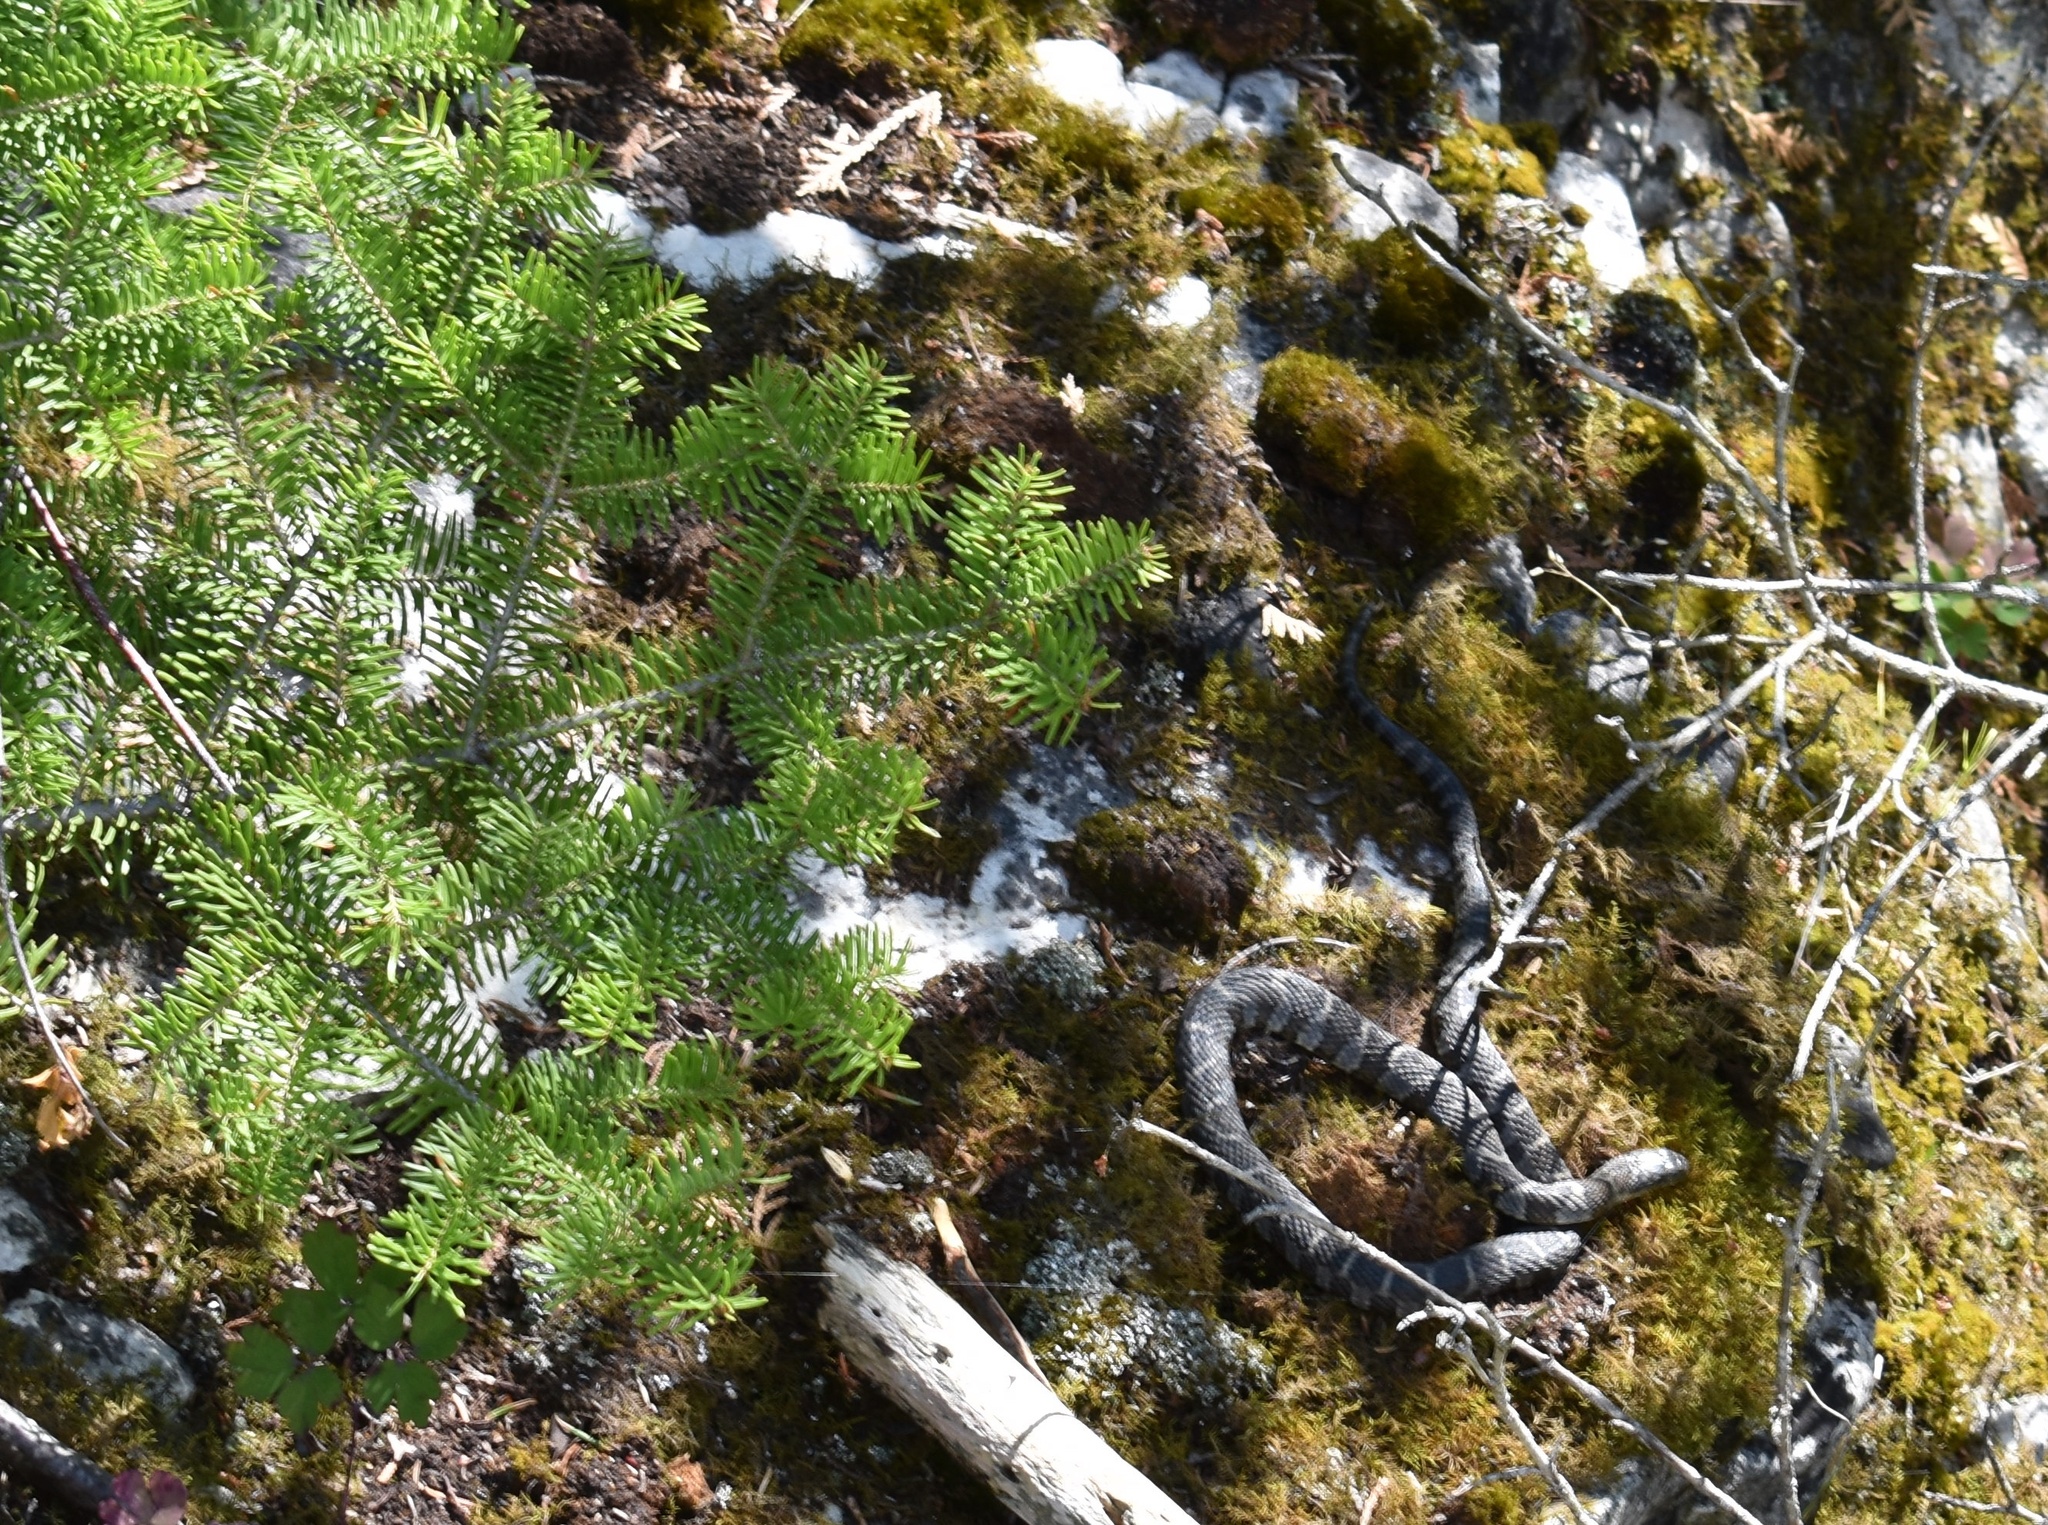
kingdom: Animalia
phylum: Chordata
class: Squamata
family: Colubridae
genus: Nerodia
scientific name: Nerodia sipedon
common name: Northern water snake
